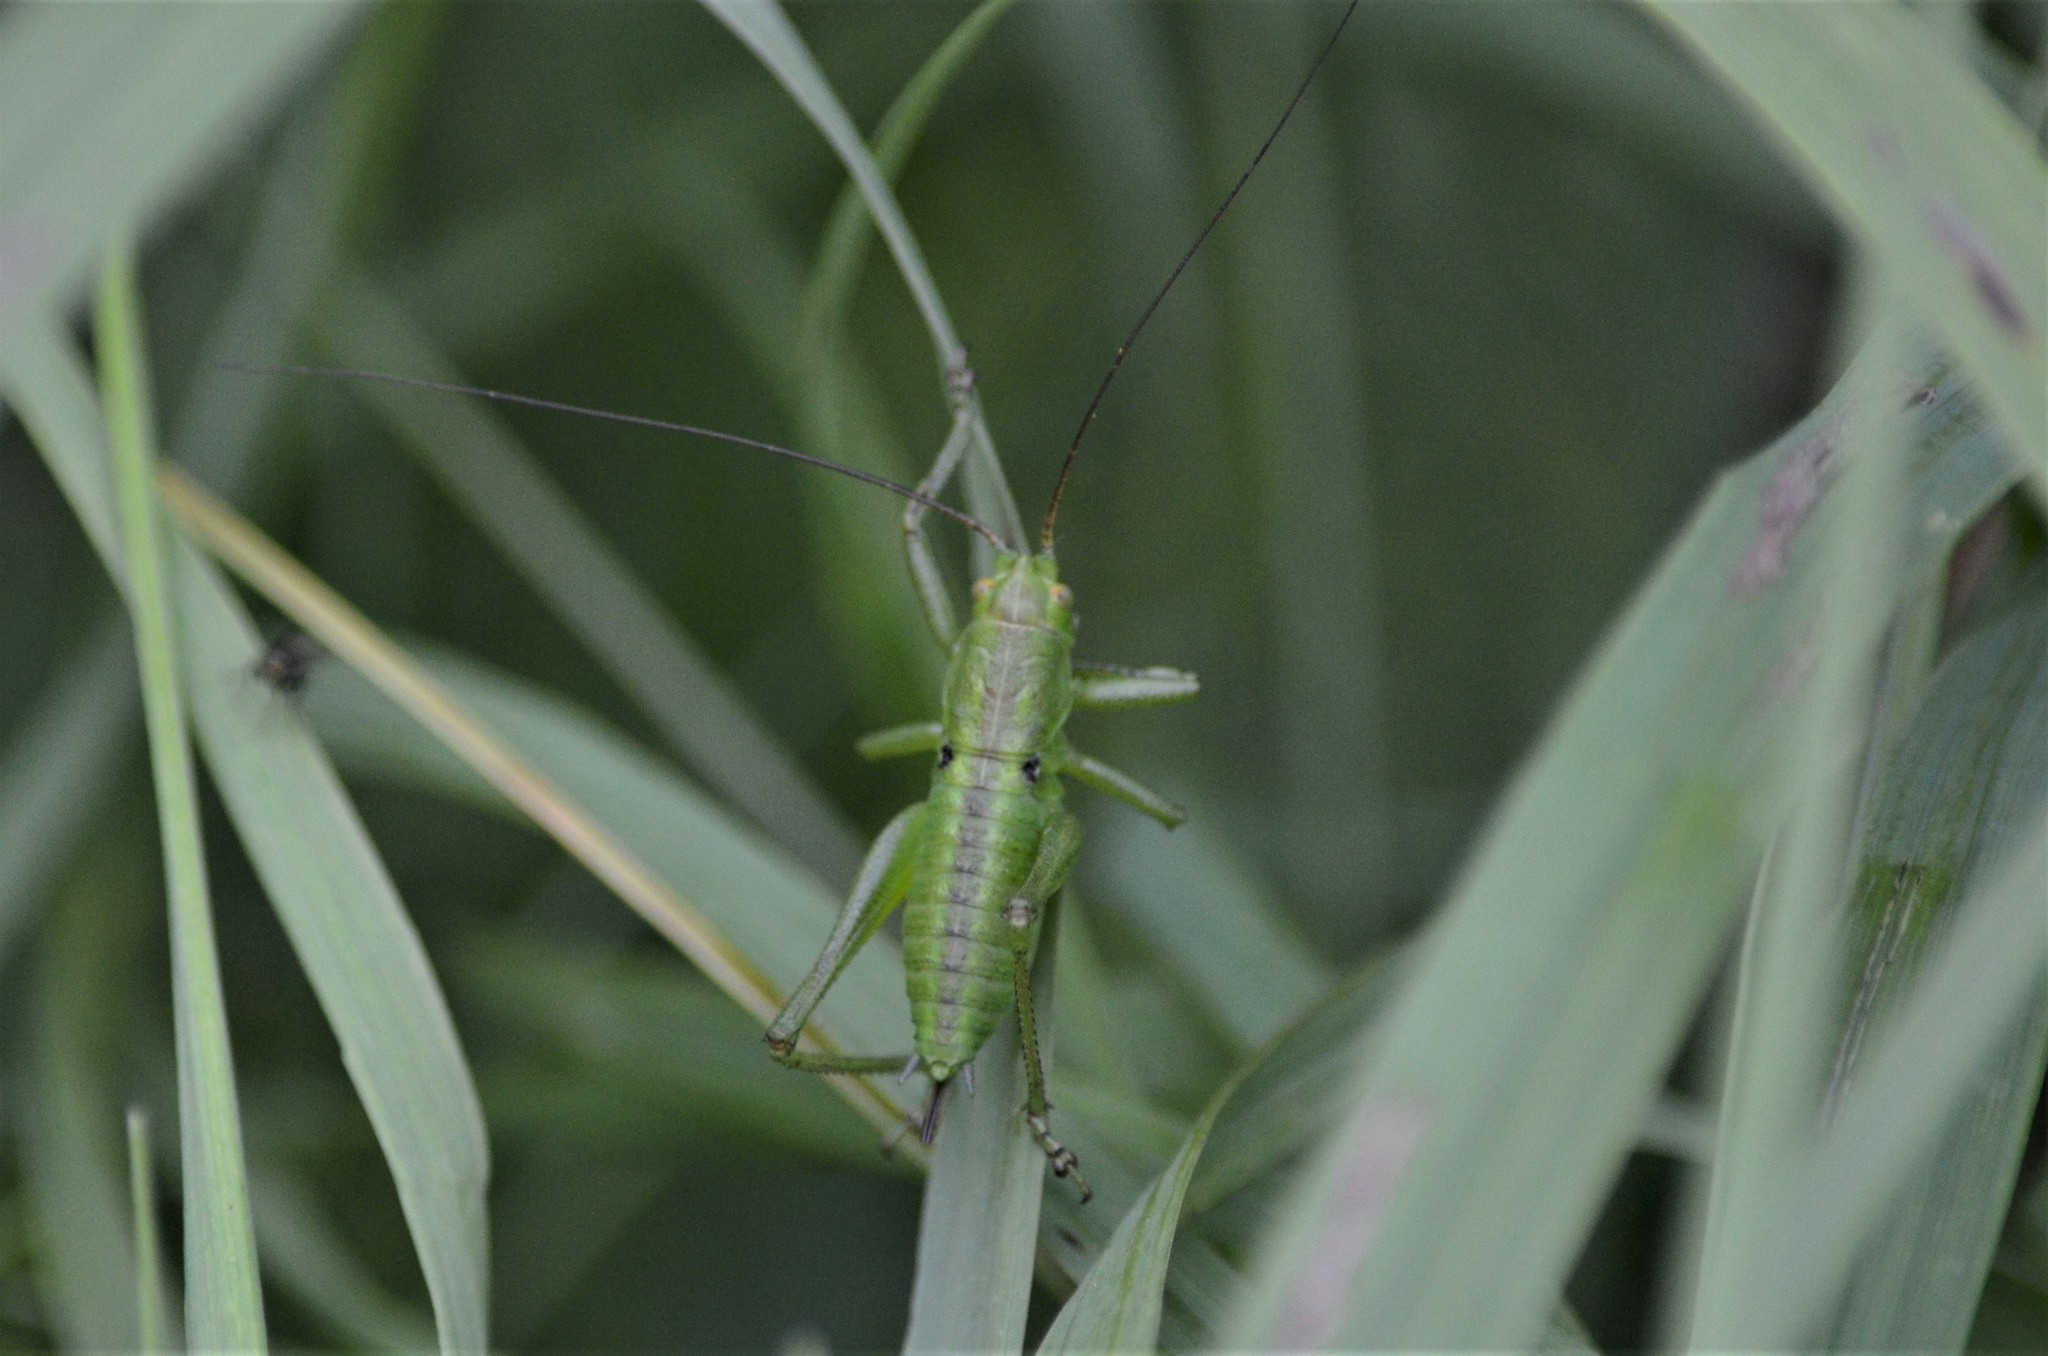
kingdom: Animalia
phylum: Arthropoda
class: Insecta
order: Orthoptera
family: Tettigoniidae
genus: Tettigonia
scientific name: Tettigonia cantans
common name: Upland green bush-cricket
